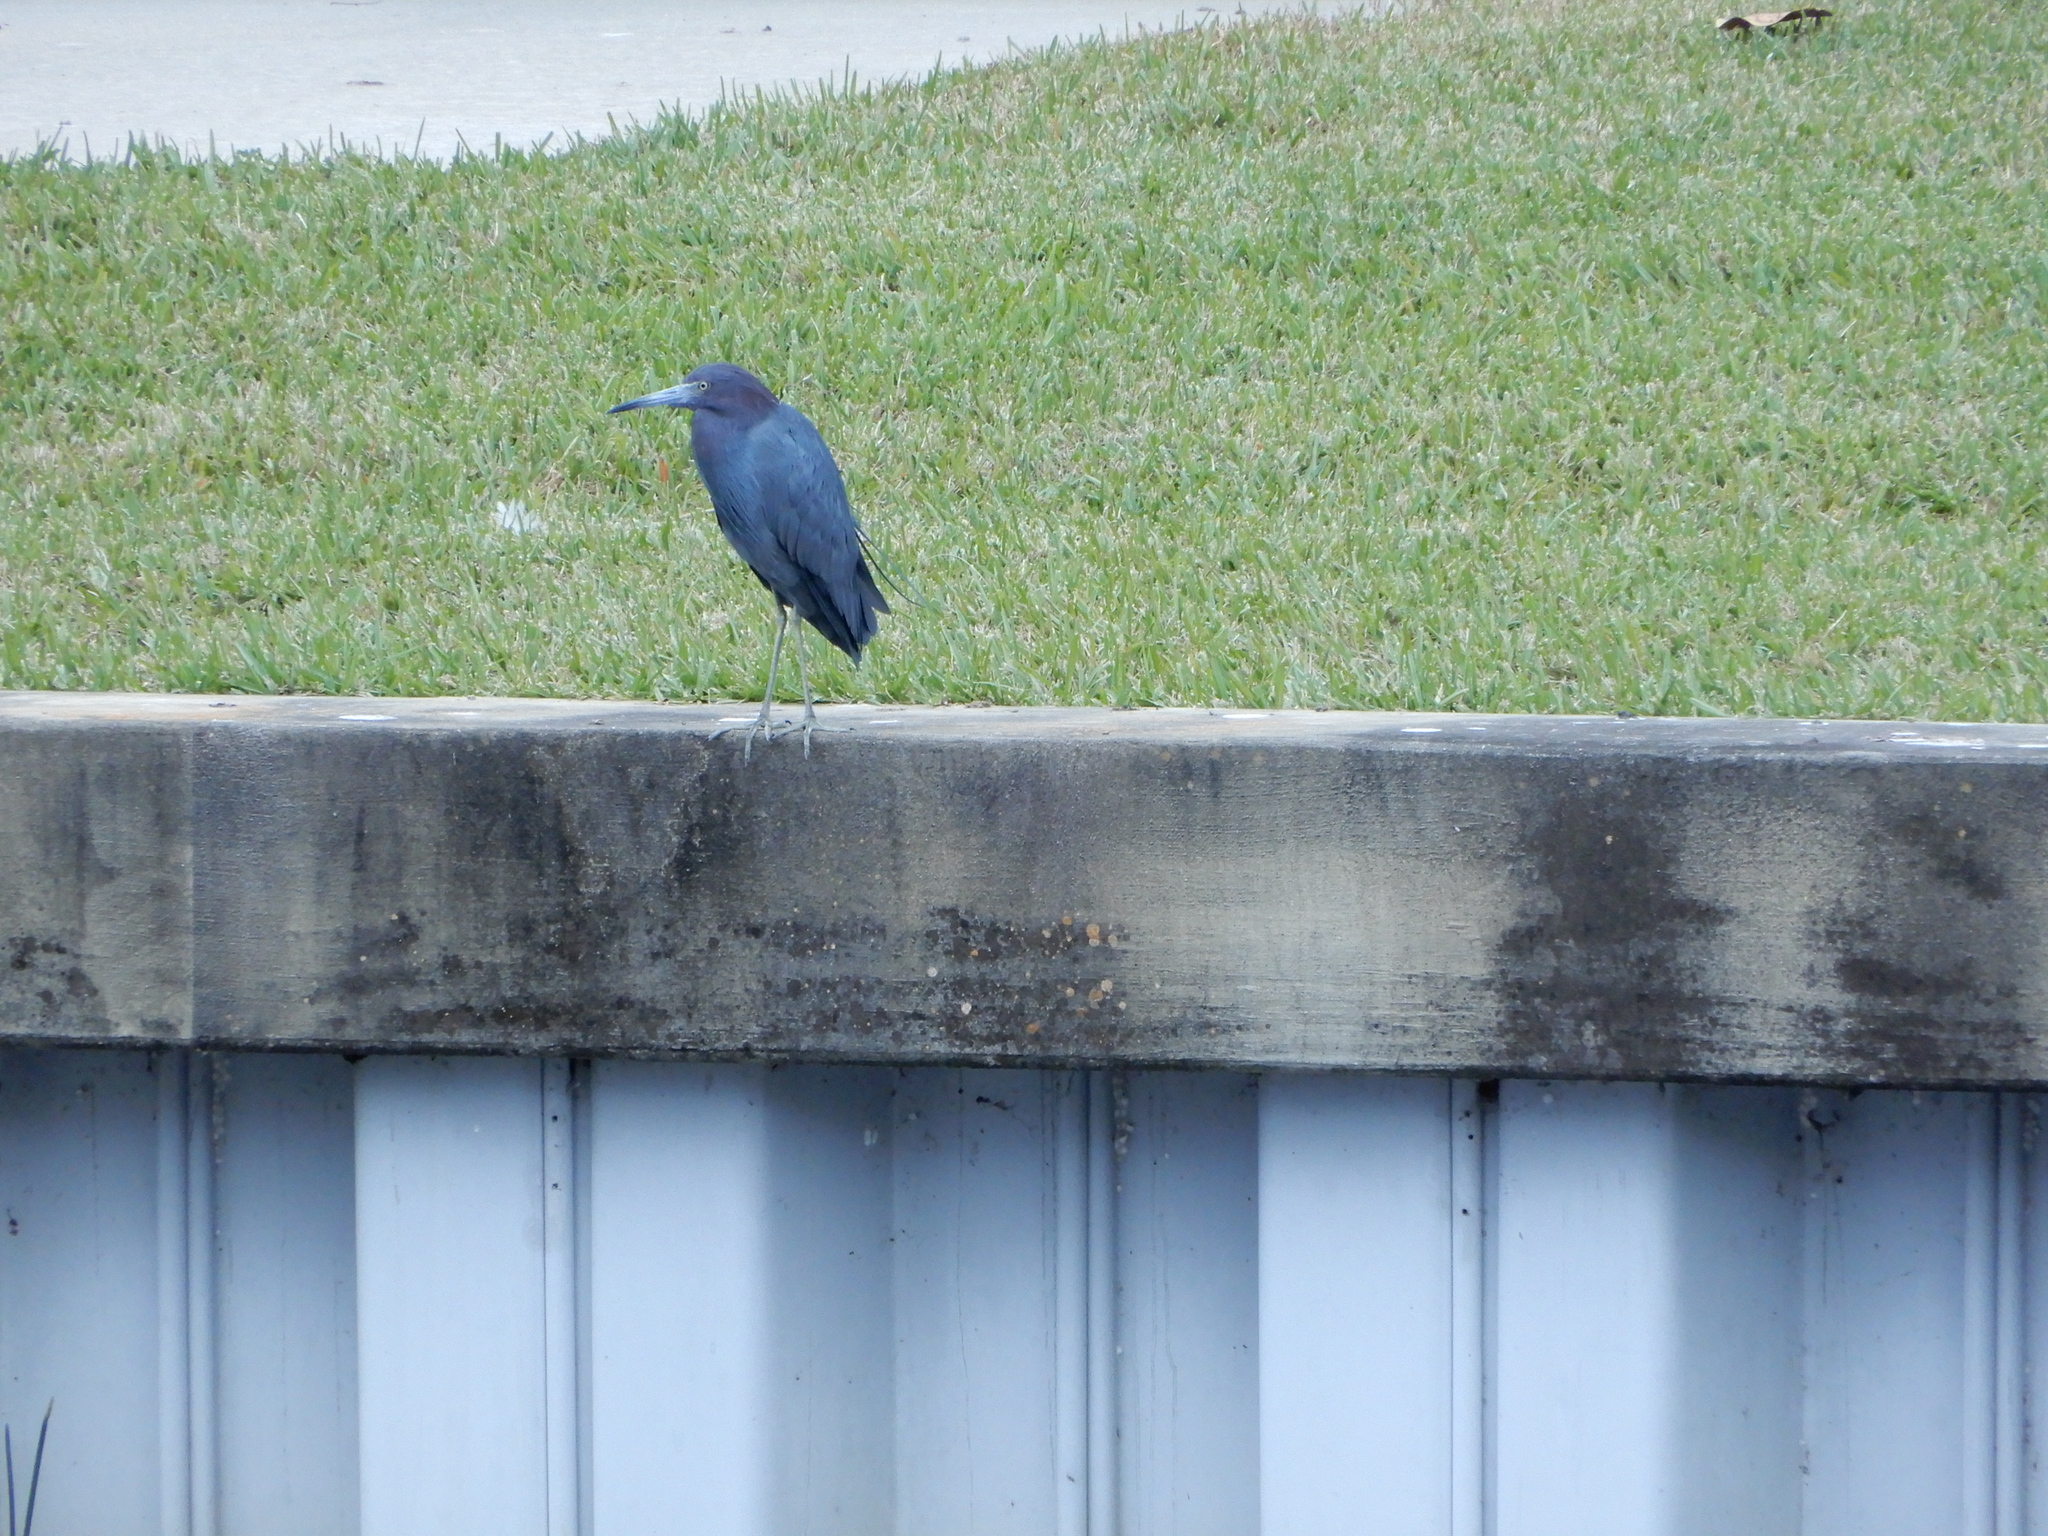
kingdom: Animalia
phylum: Chordata
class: Aves
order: Pelecaniformes
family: Ardeidae
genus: Egretta
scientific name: Egretta caerulea
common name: Little blue heron
